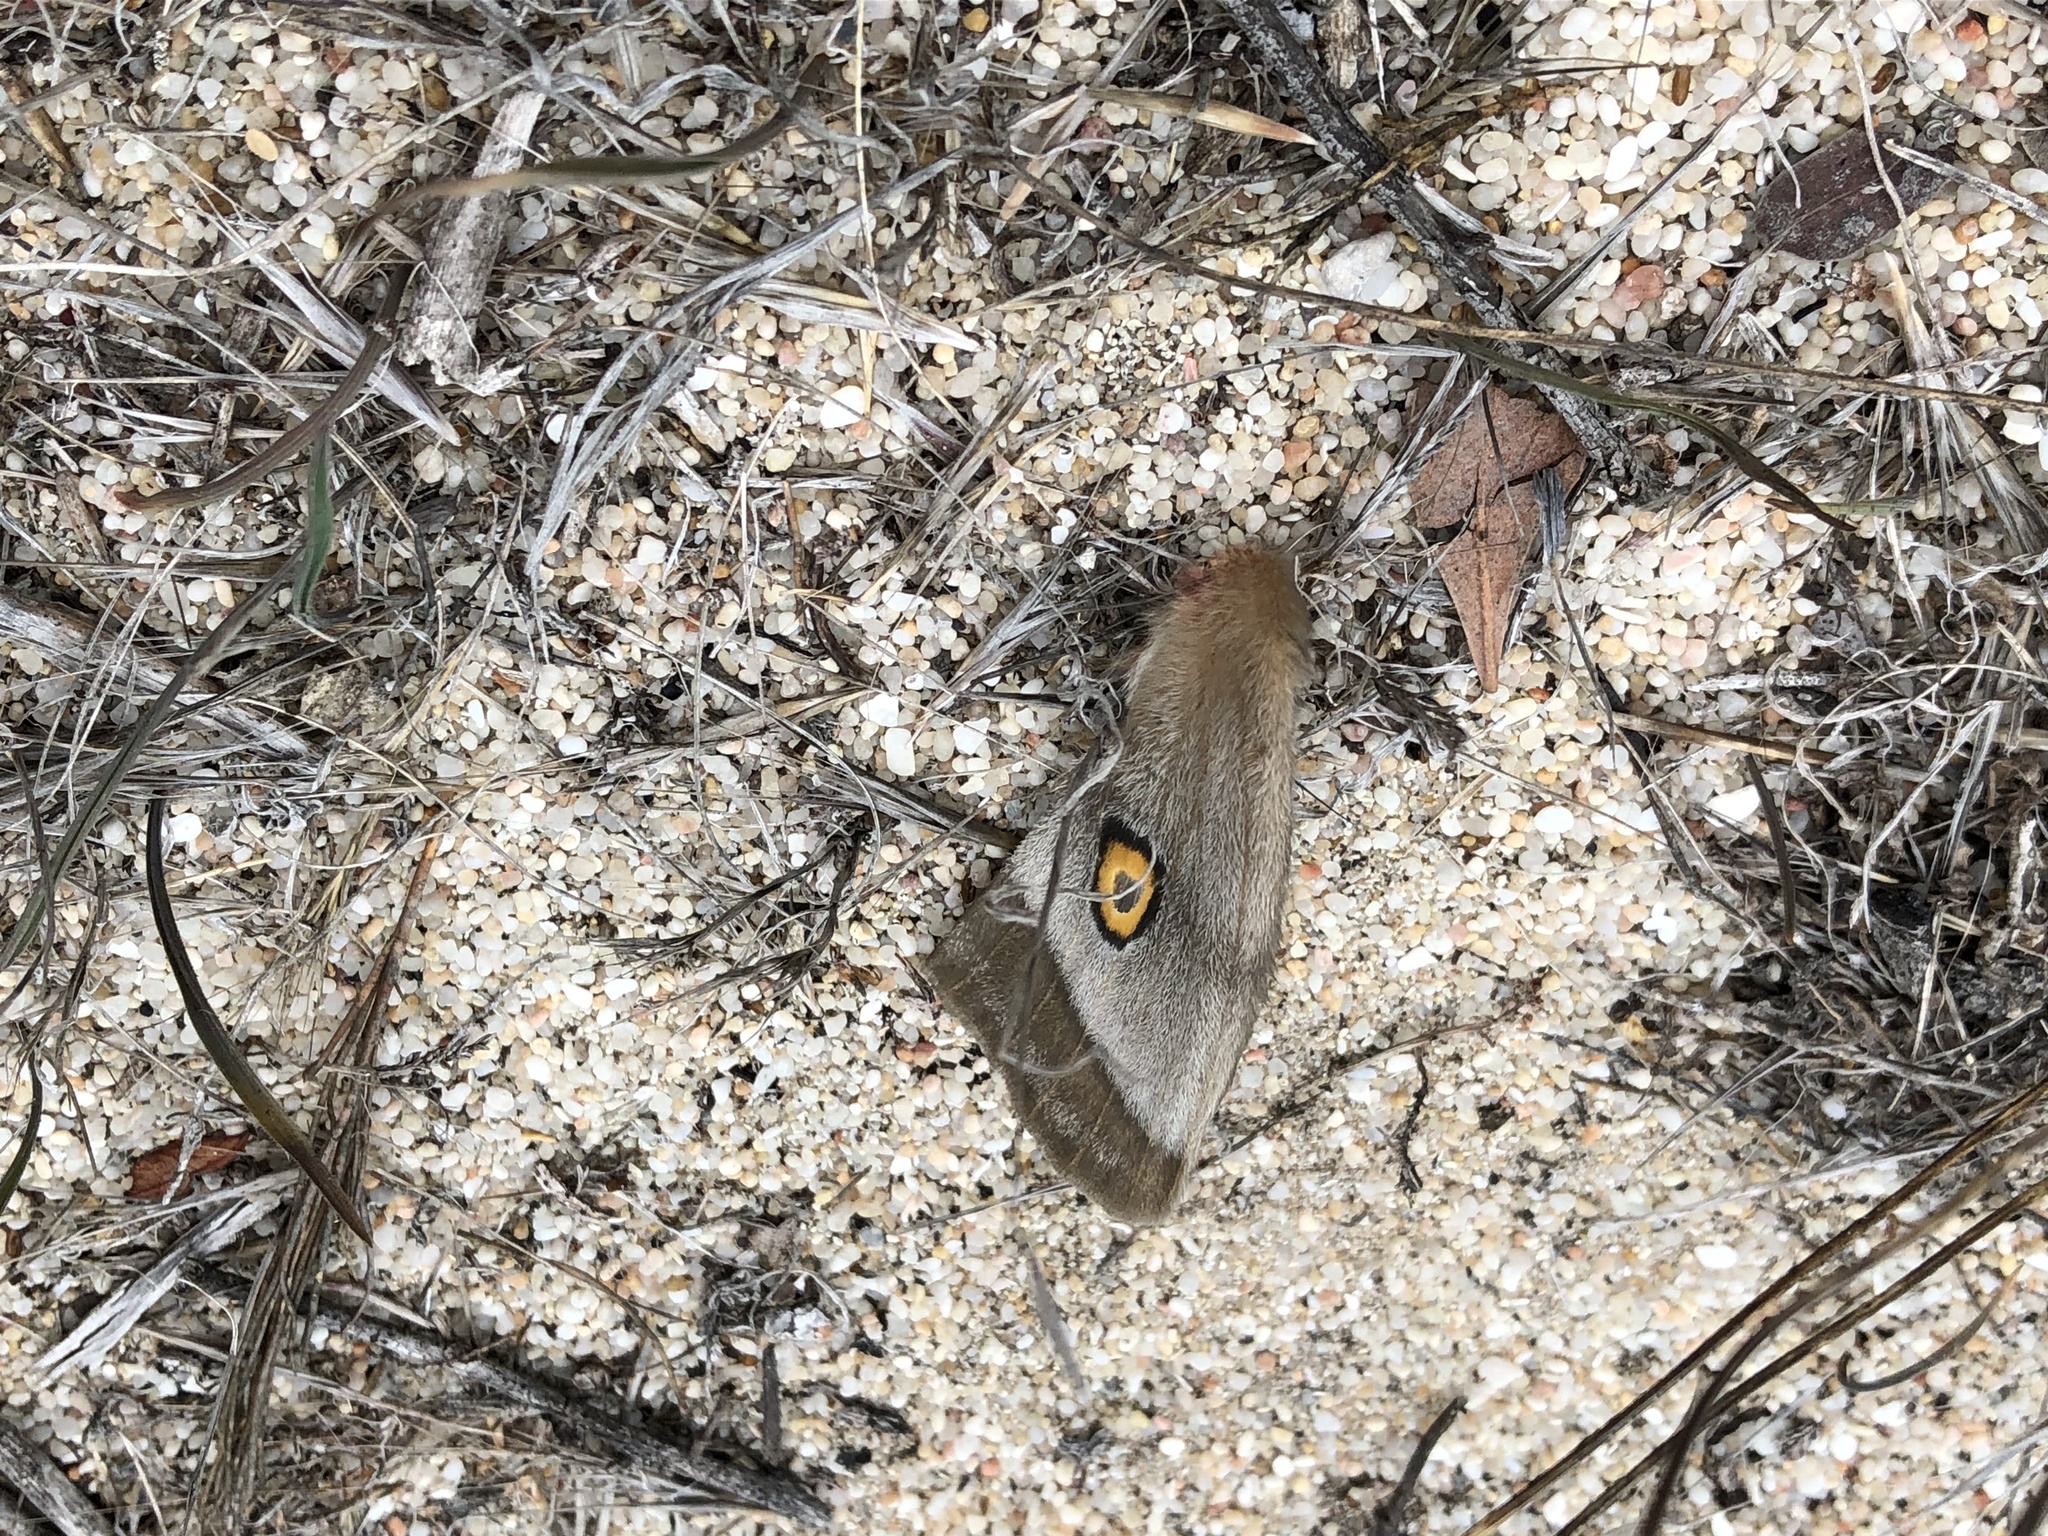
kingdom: Animalia
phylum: Arthropoda
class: Insecta
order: Lepidoptera
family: Saturniidae
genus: Nudaurelia
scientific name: Nudaurelia cytherea
